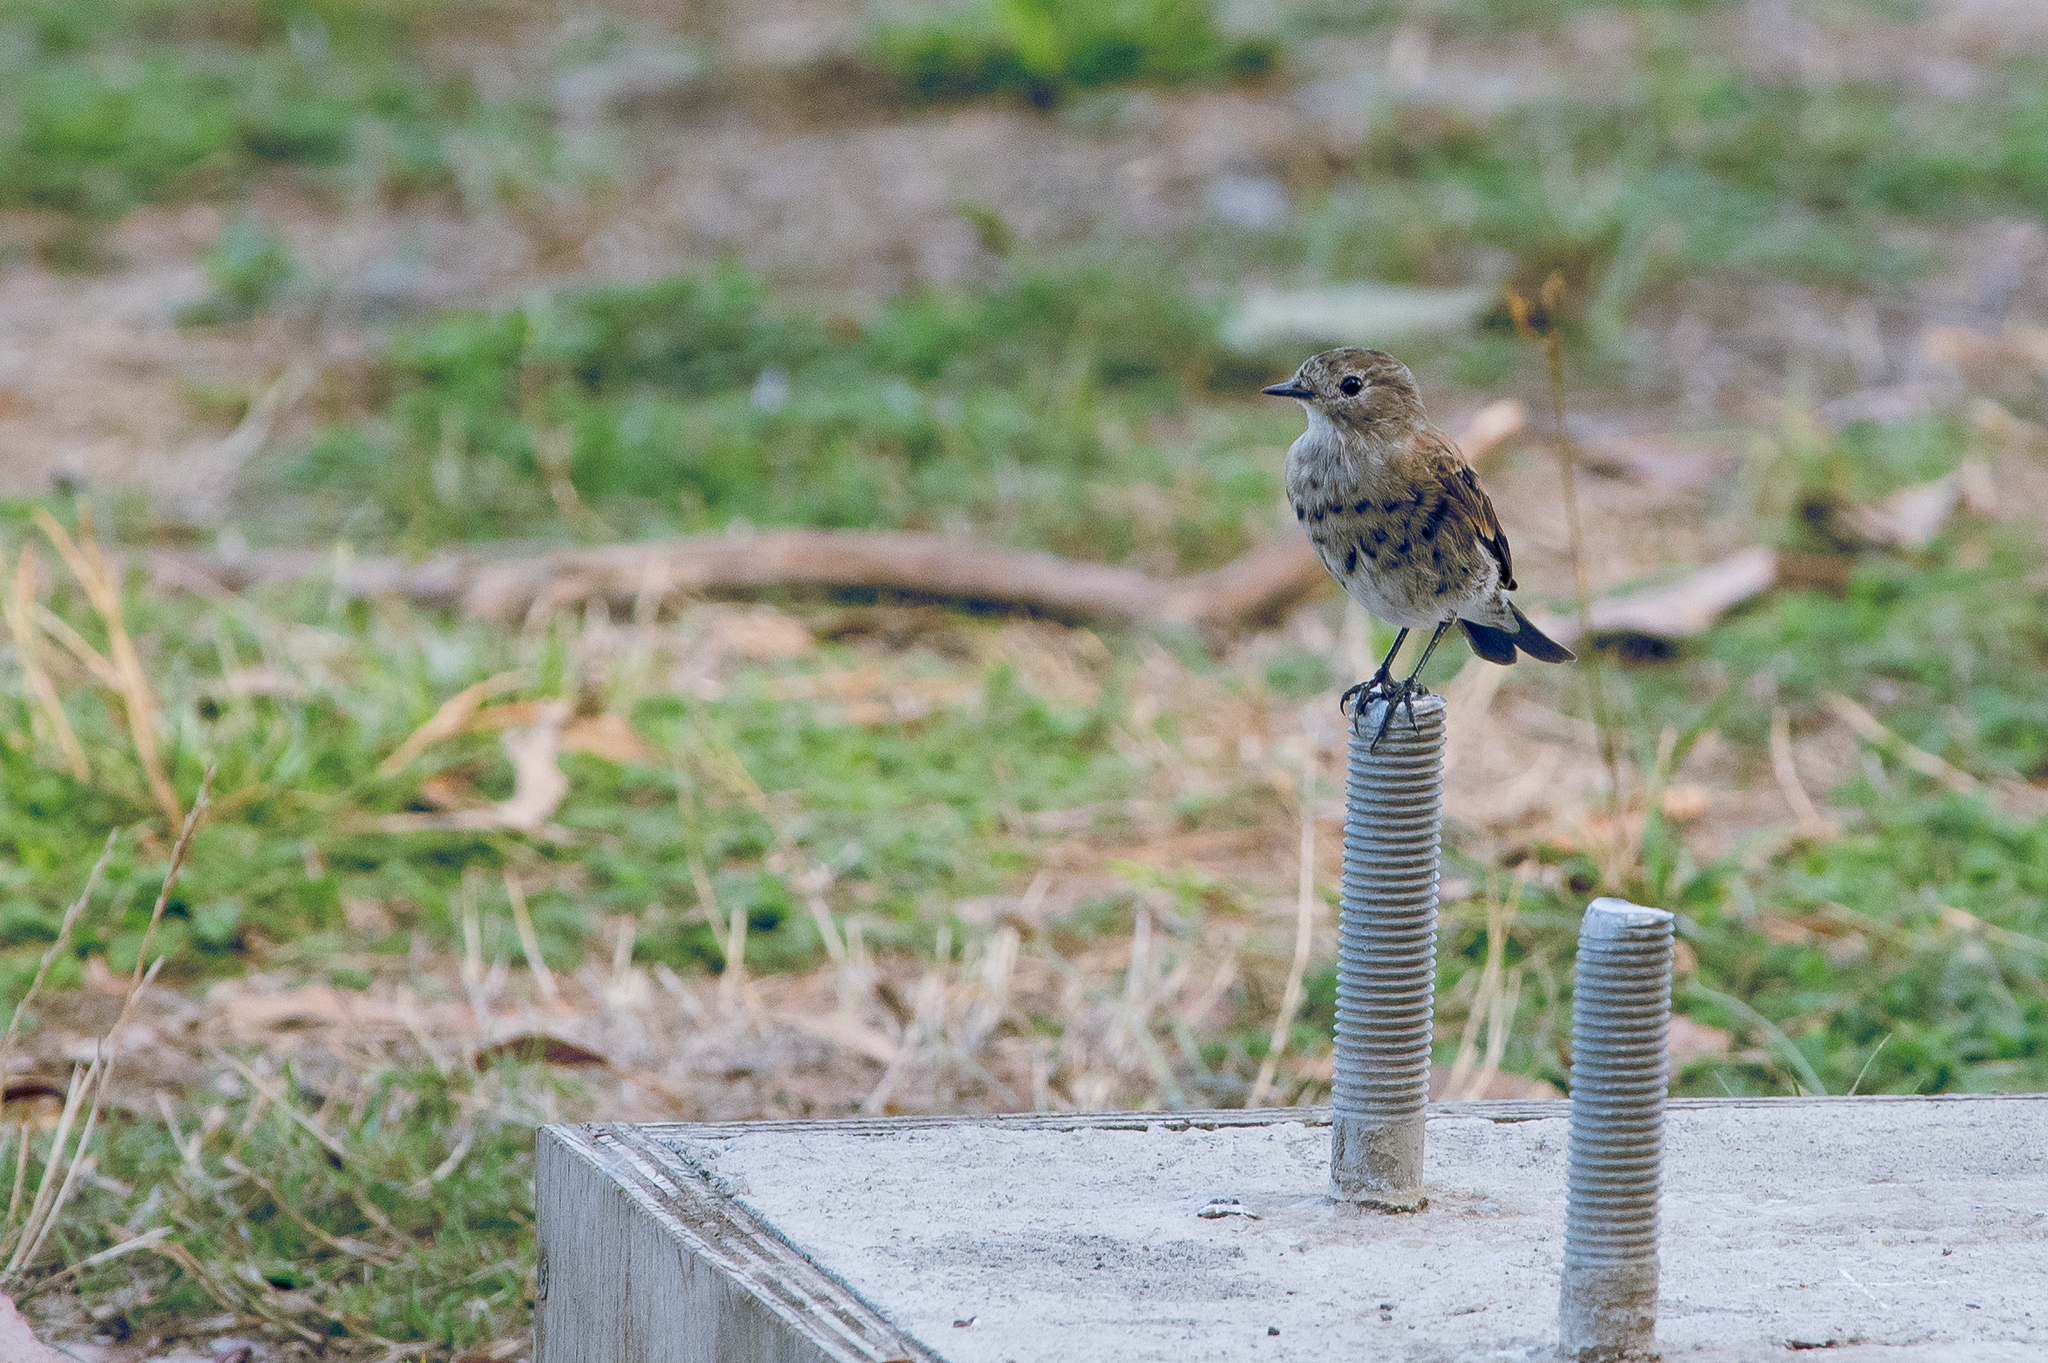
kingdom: Animalia
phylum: Chordata
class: Aves
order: Passeriformes
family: Tyrannidae
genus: Lessonia
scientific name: Lessonia rufa
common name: Austral negrito
